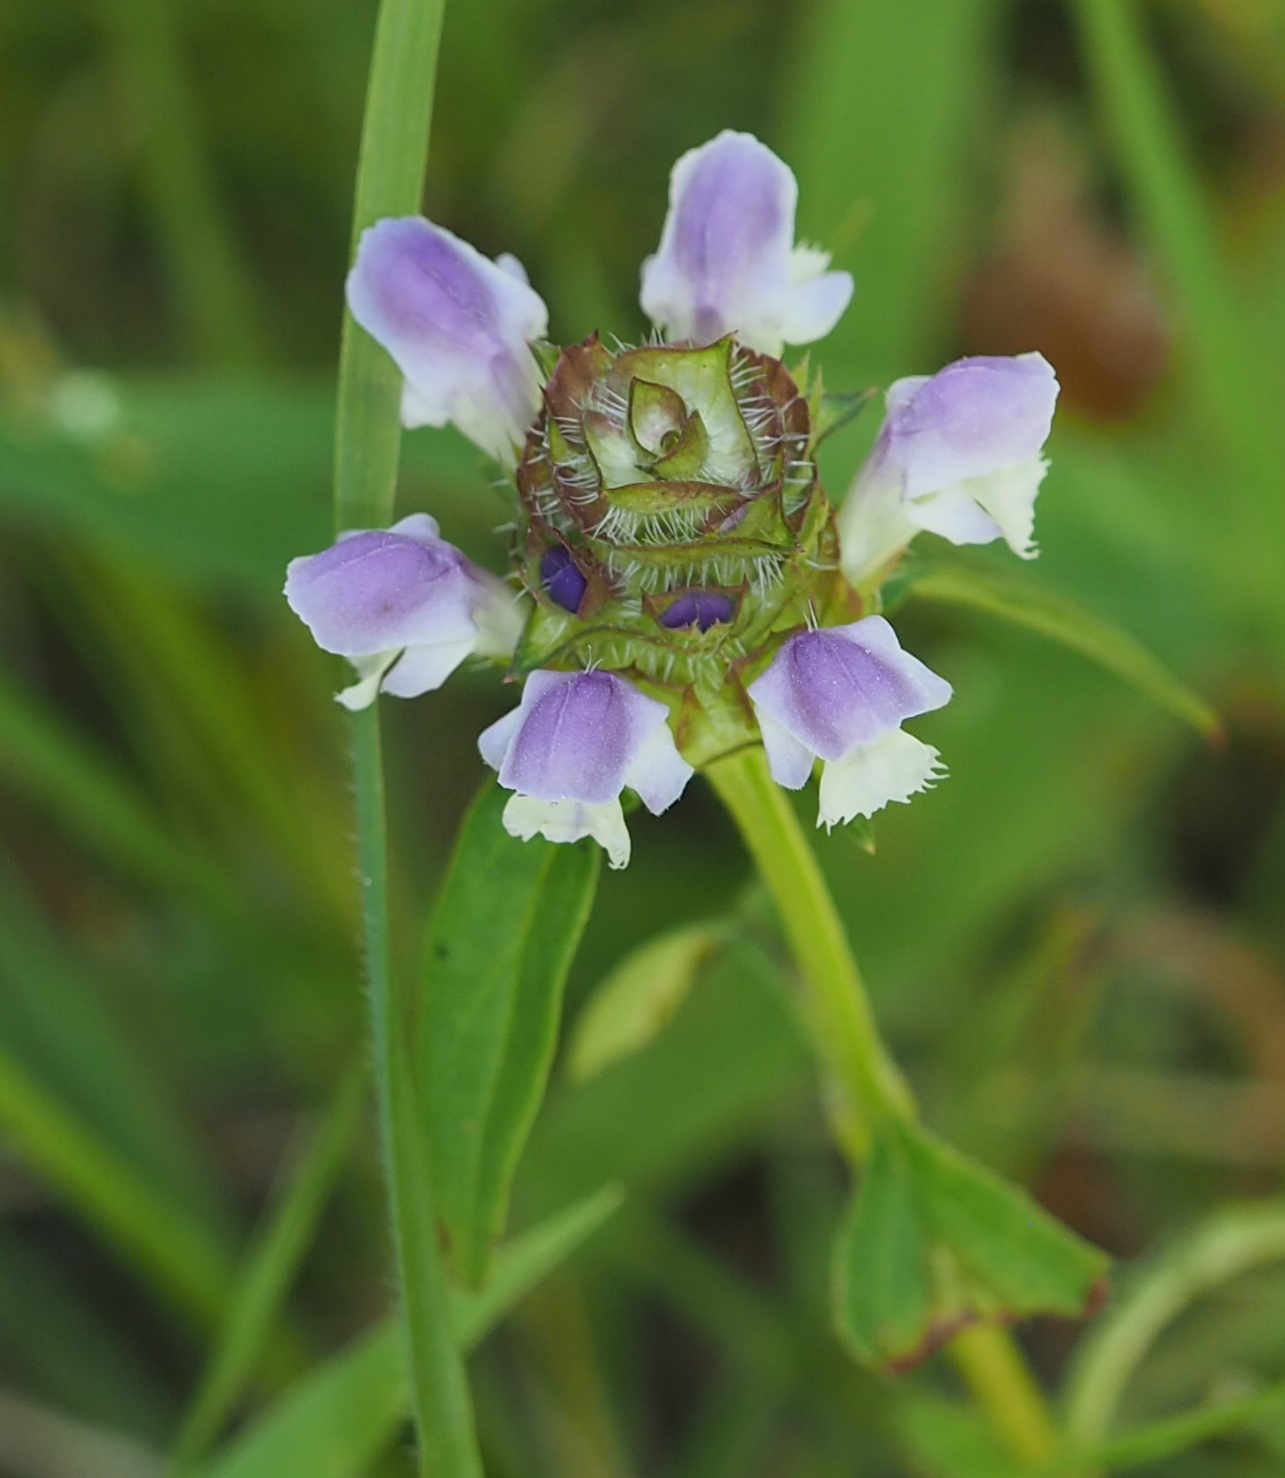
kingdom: Plantae
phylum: Tracheophyta
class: Magnoliopsida
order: Lamiales
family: Lamiaceae
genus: Prunella
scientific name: Prunella vulgaris
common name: Heal-all
